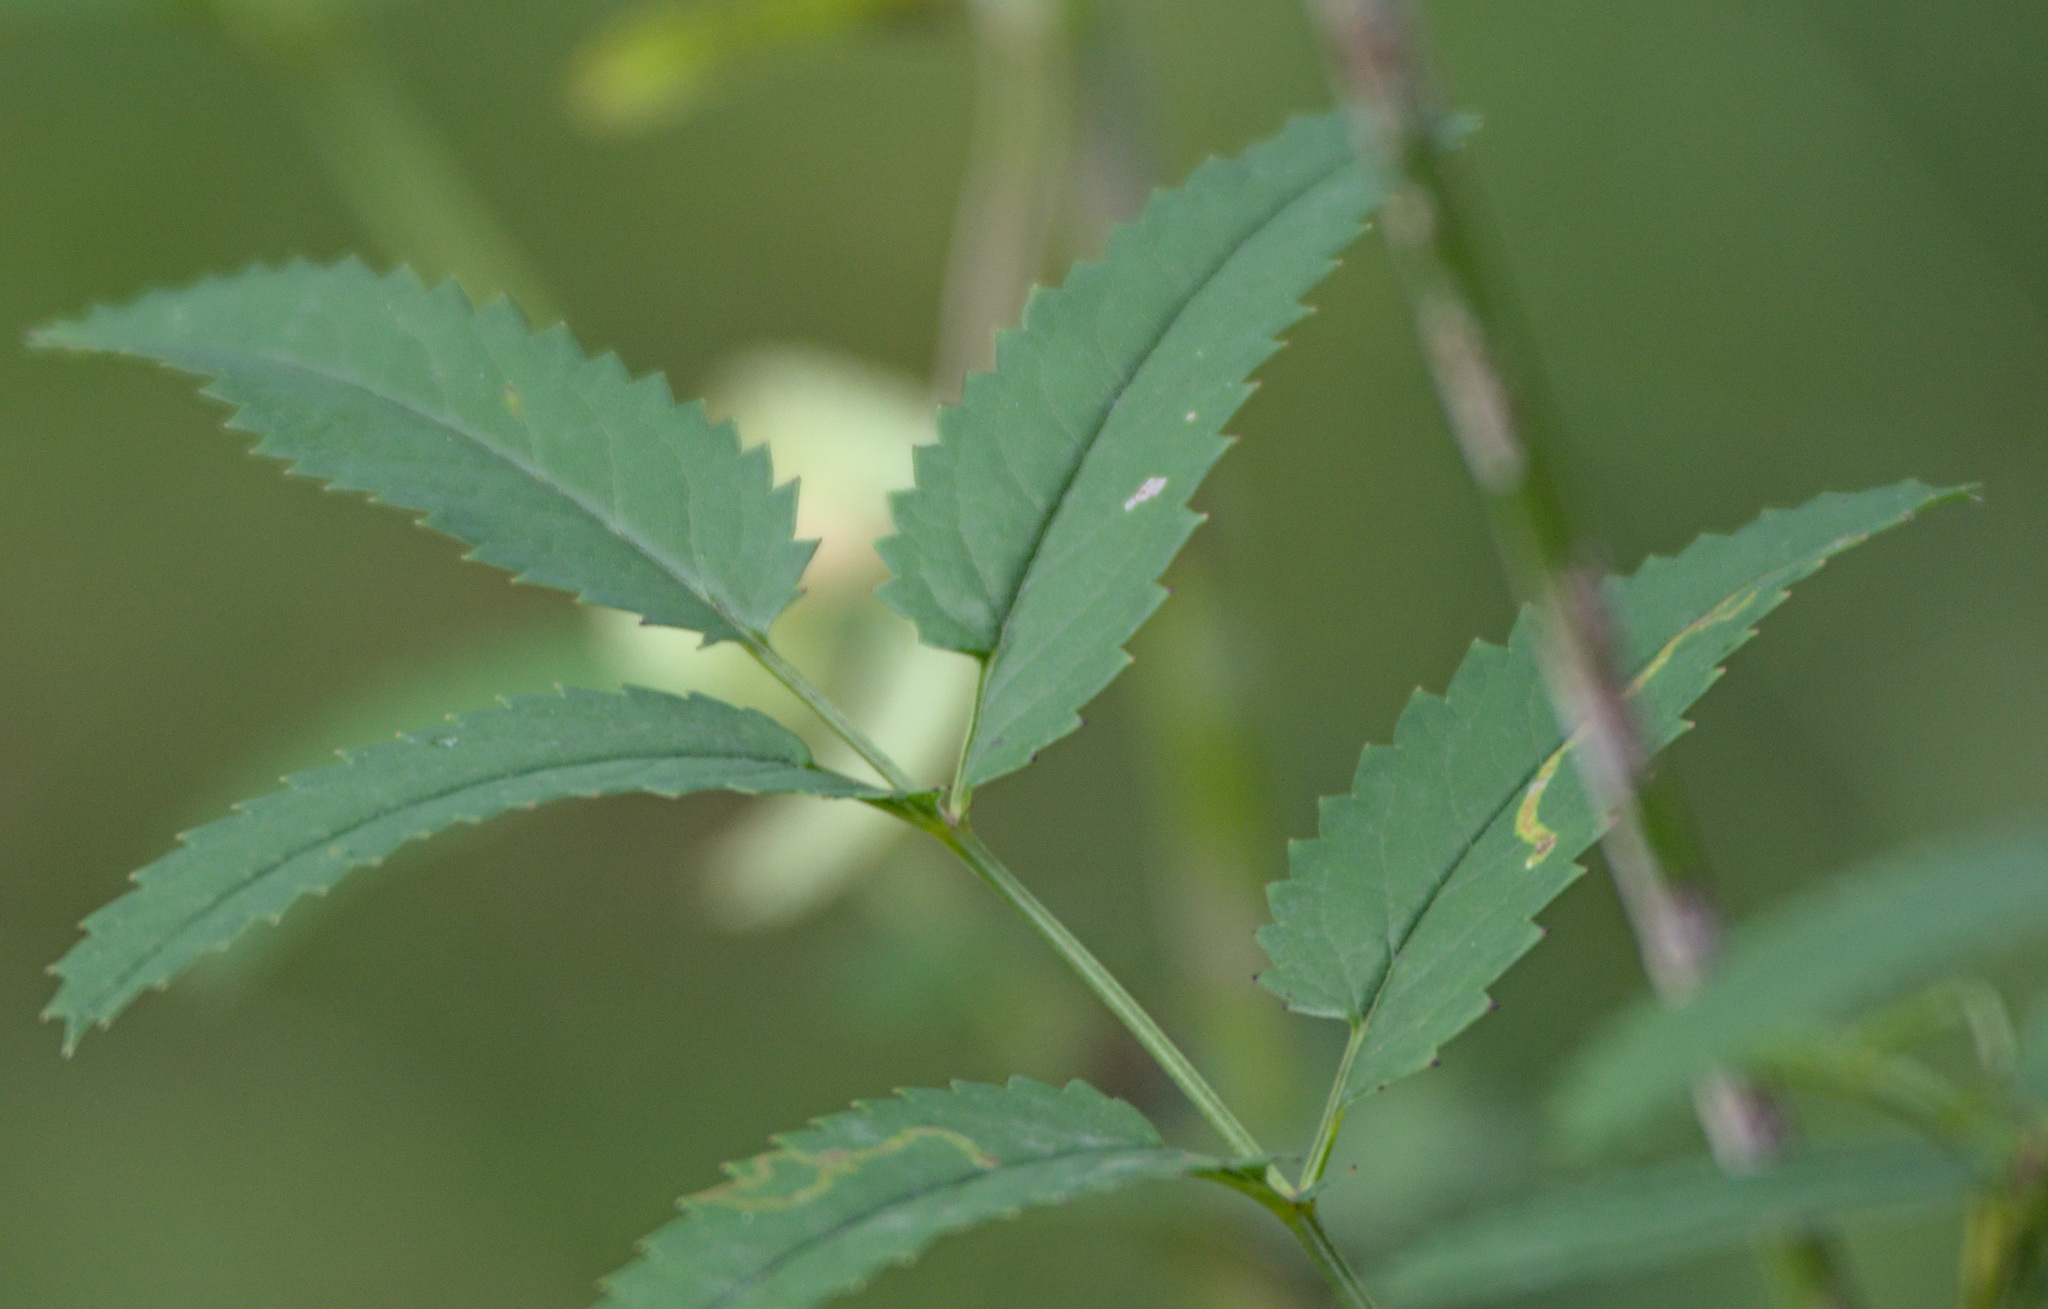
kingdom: Plantae
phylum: Tracheophyta
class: Magnoliopsida
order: Rosales
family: Rosaceae
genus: Sanguisorba
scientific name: Sanguisorba officinalis
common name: Great burnet
